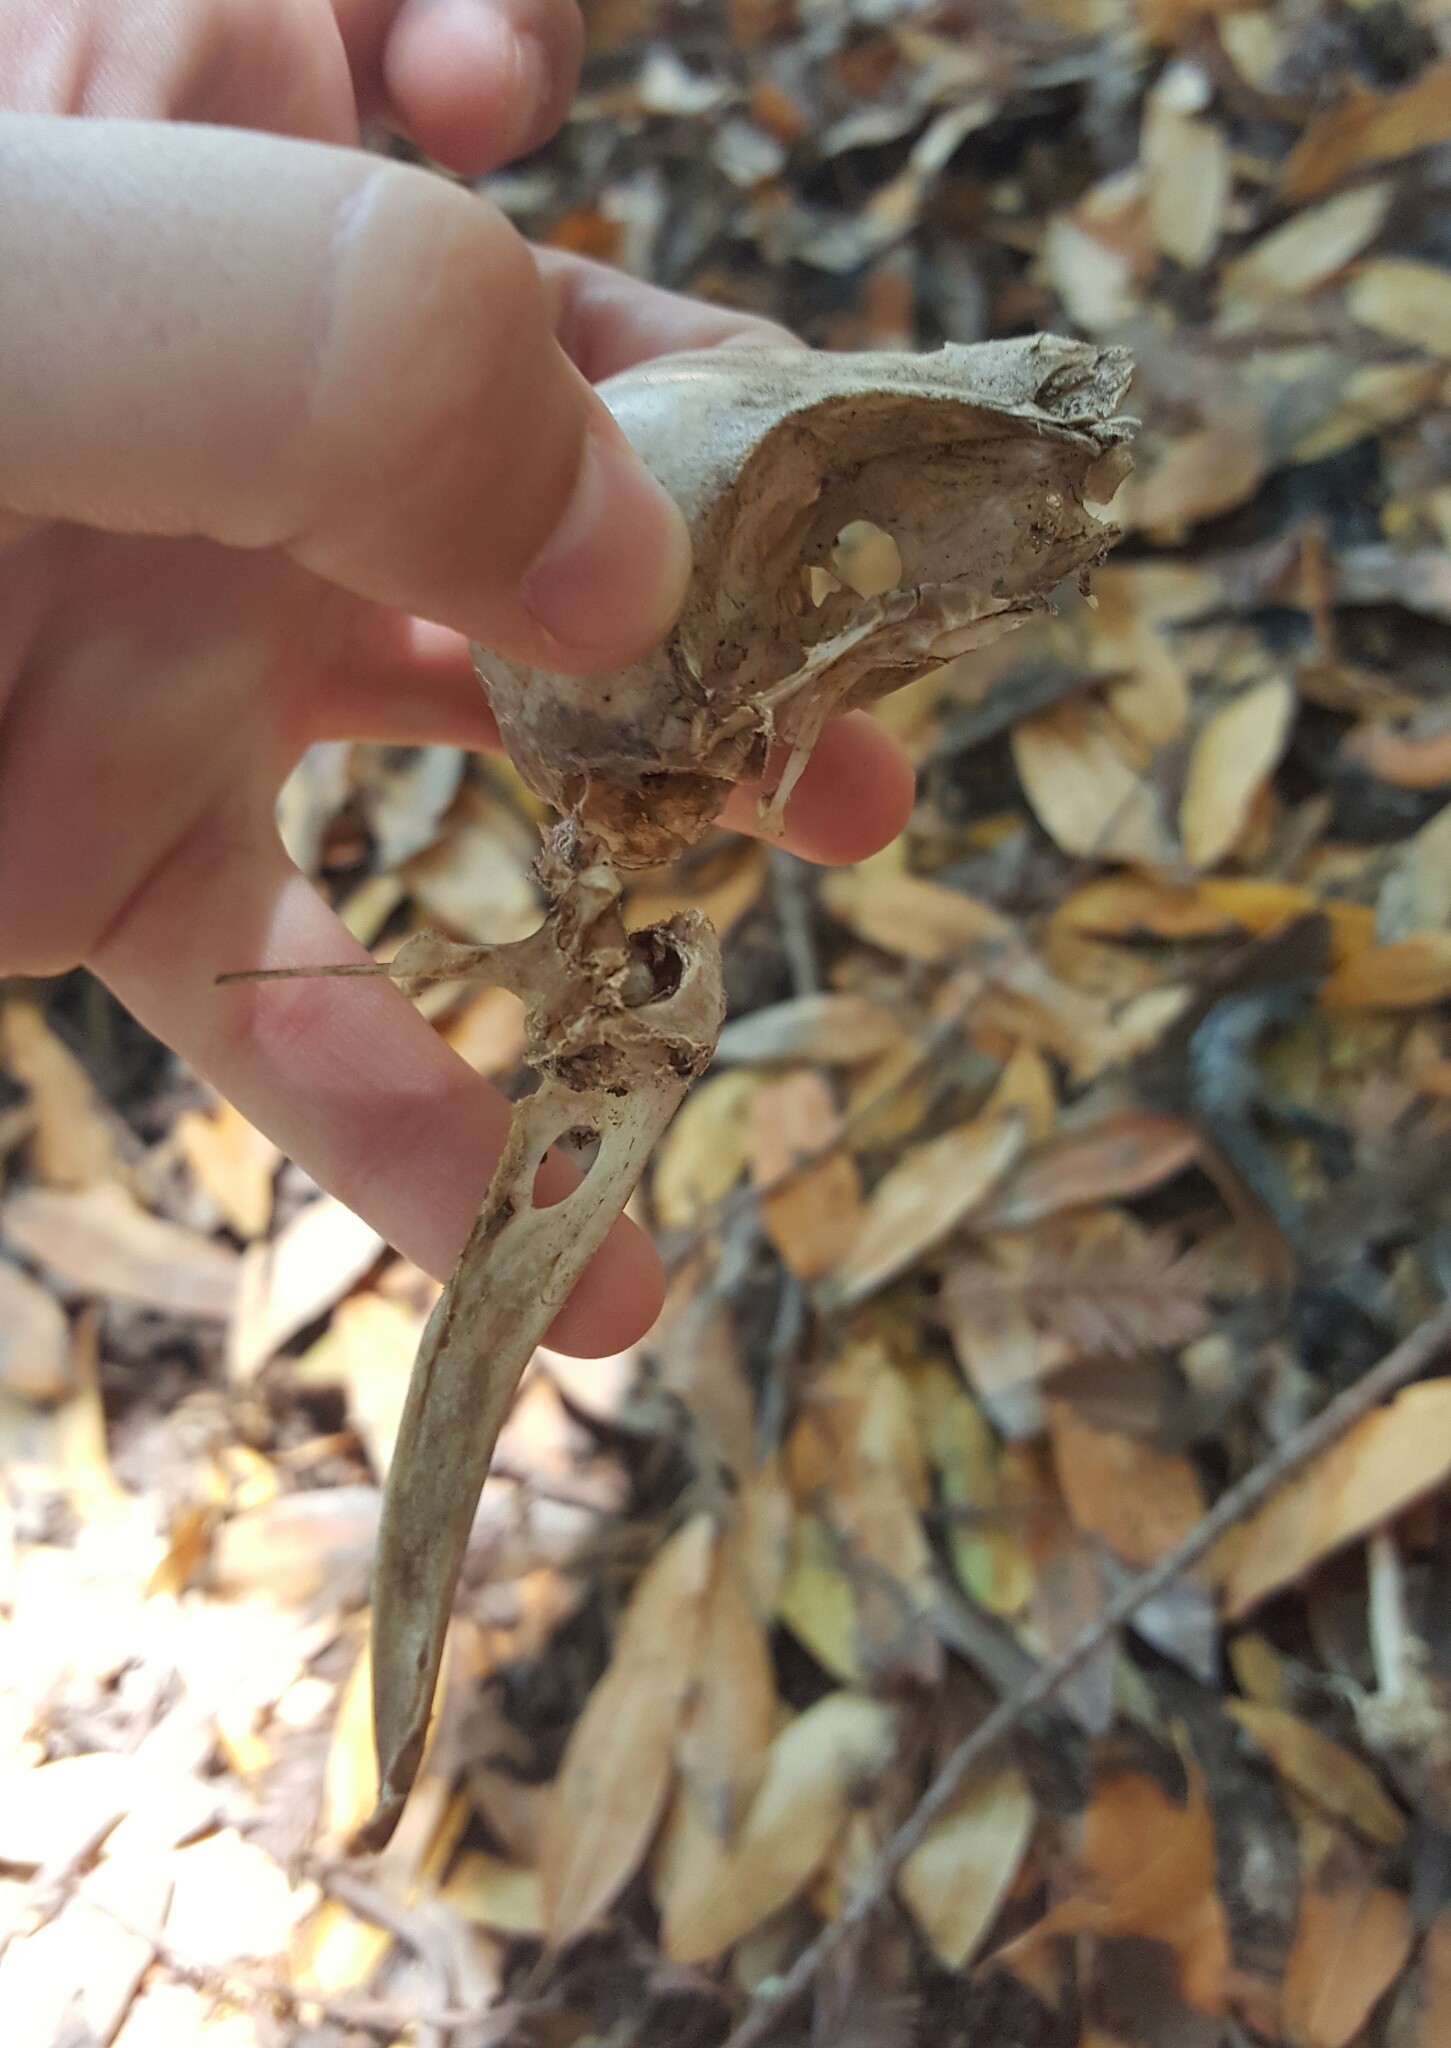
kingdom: Animalia
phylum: Chordata
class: Aves
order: Passeriformes
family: Corvidae
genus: Corvus
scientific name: Corvus corax
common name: Common raven
